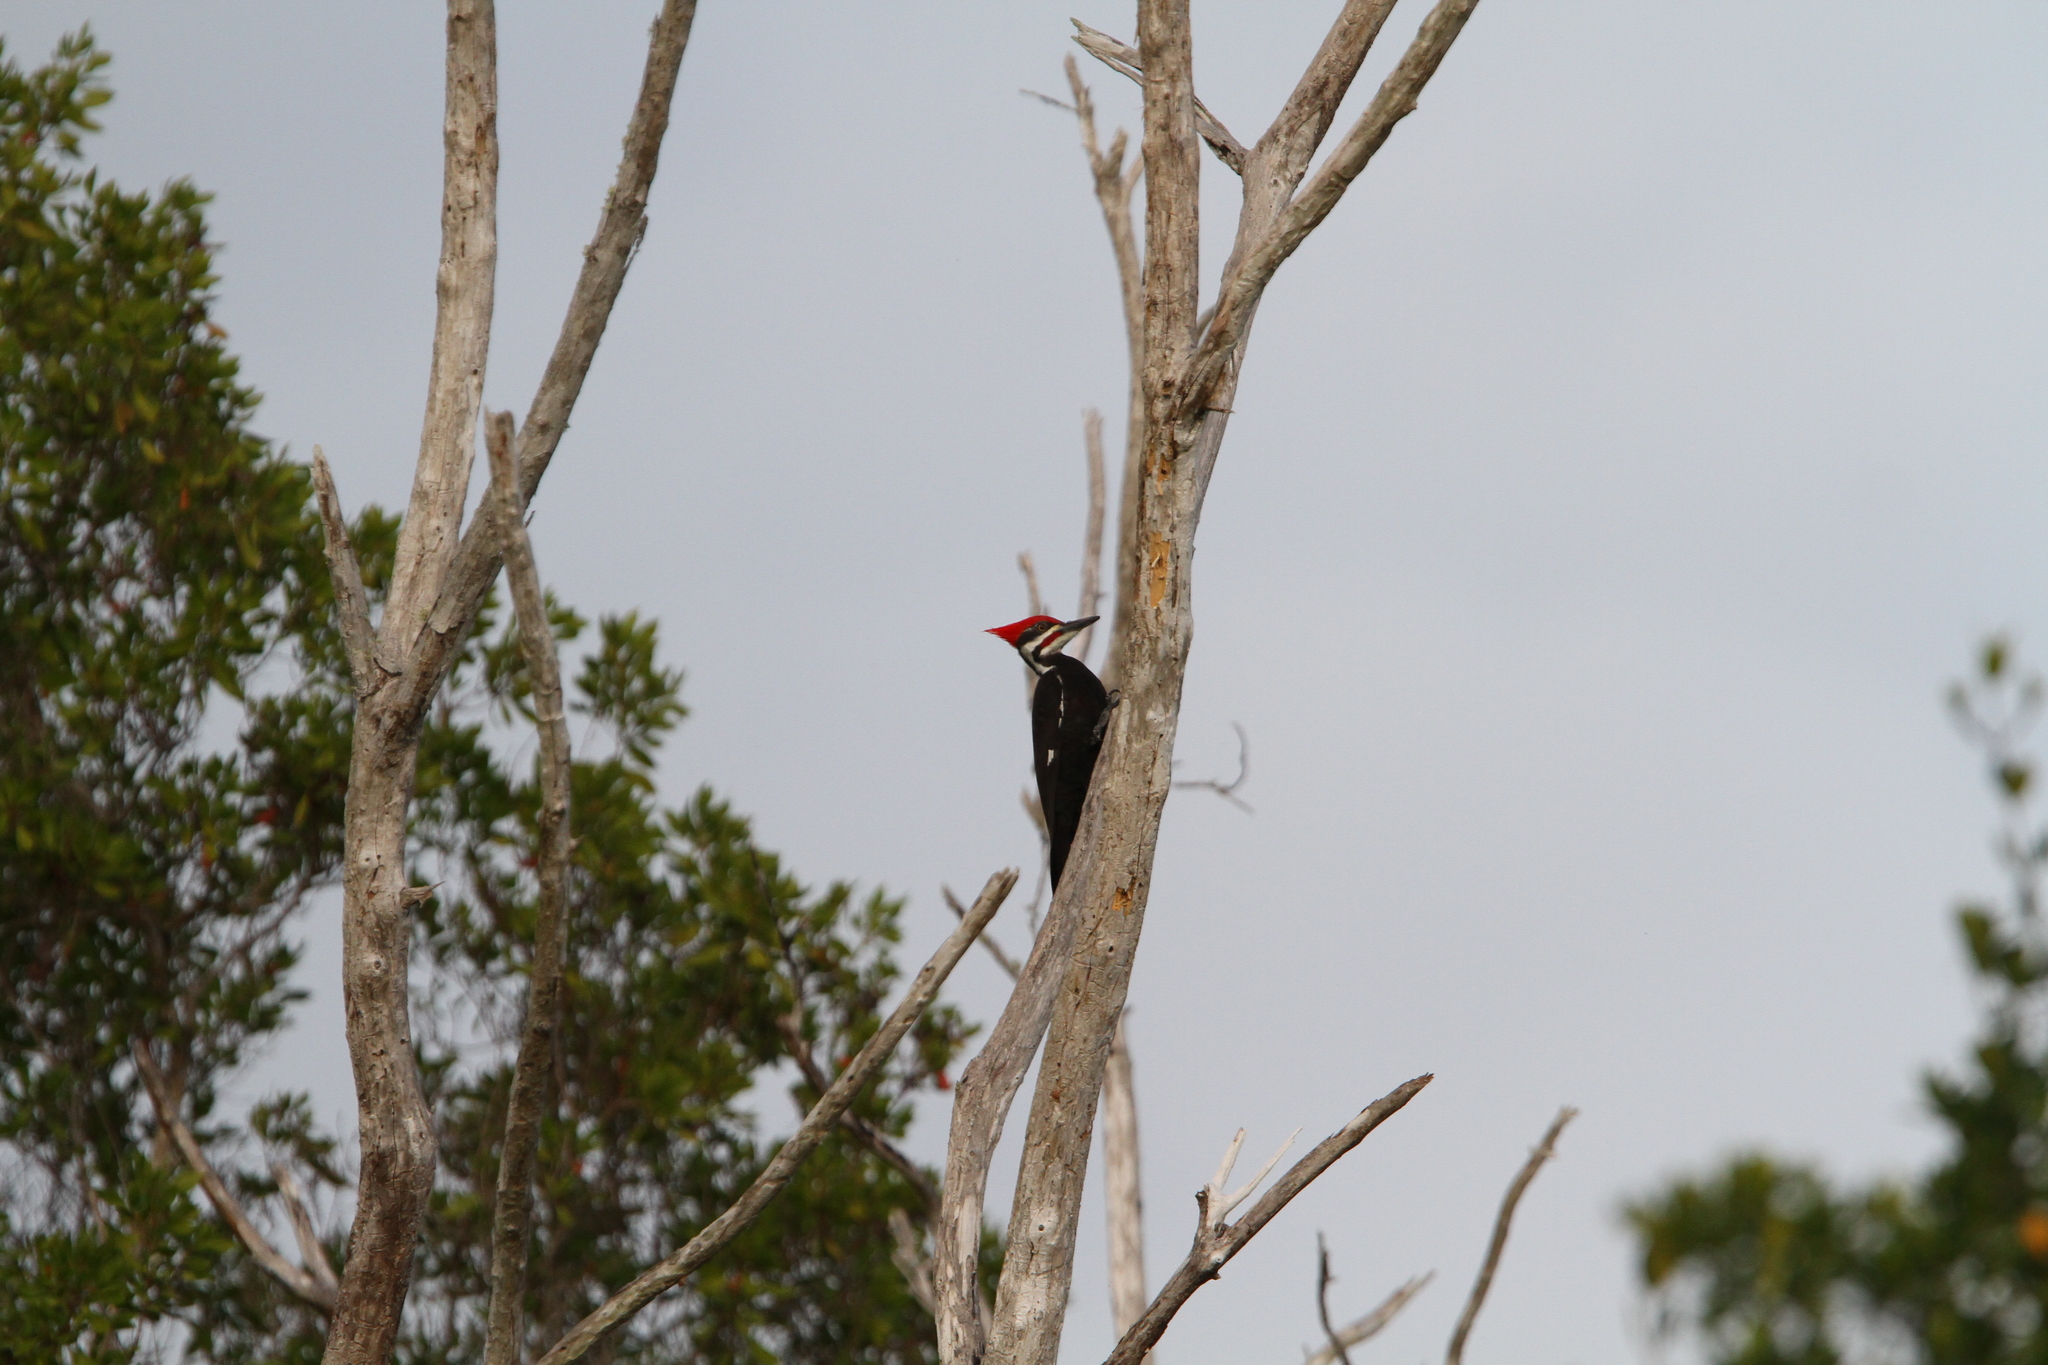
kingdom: Animalia
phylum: Chordata
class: Aves
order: Piciformes
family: Picidae
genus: Dryocopus
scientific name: Dryocopus pileatus
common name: Pileated woodpecker
